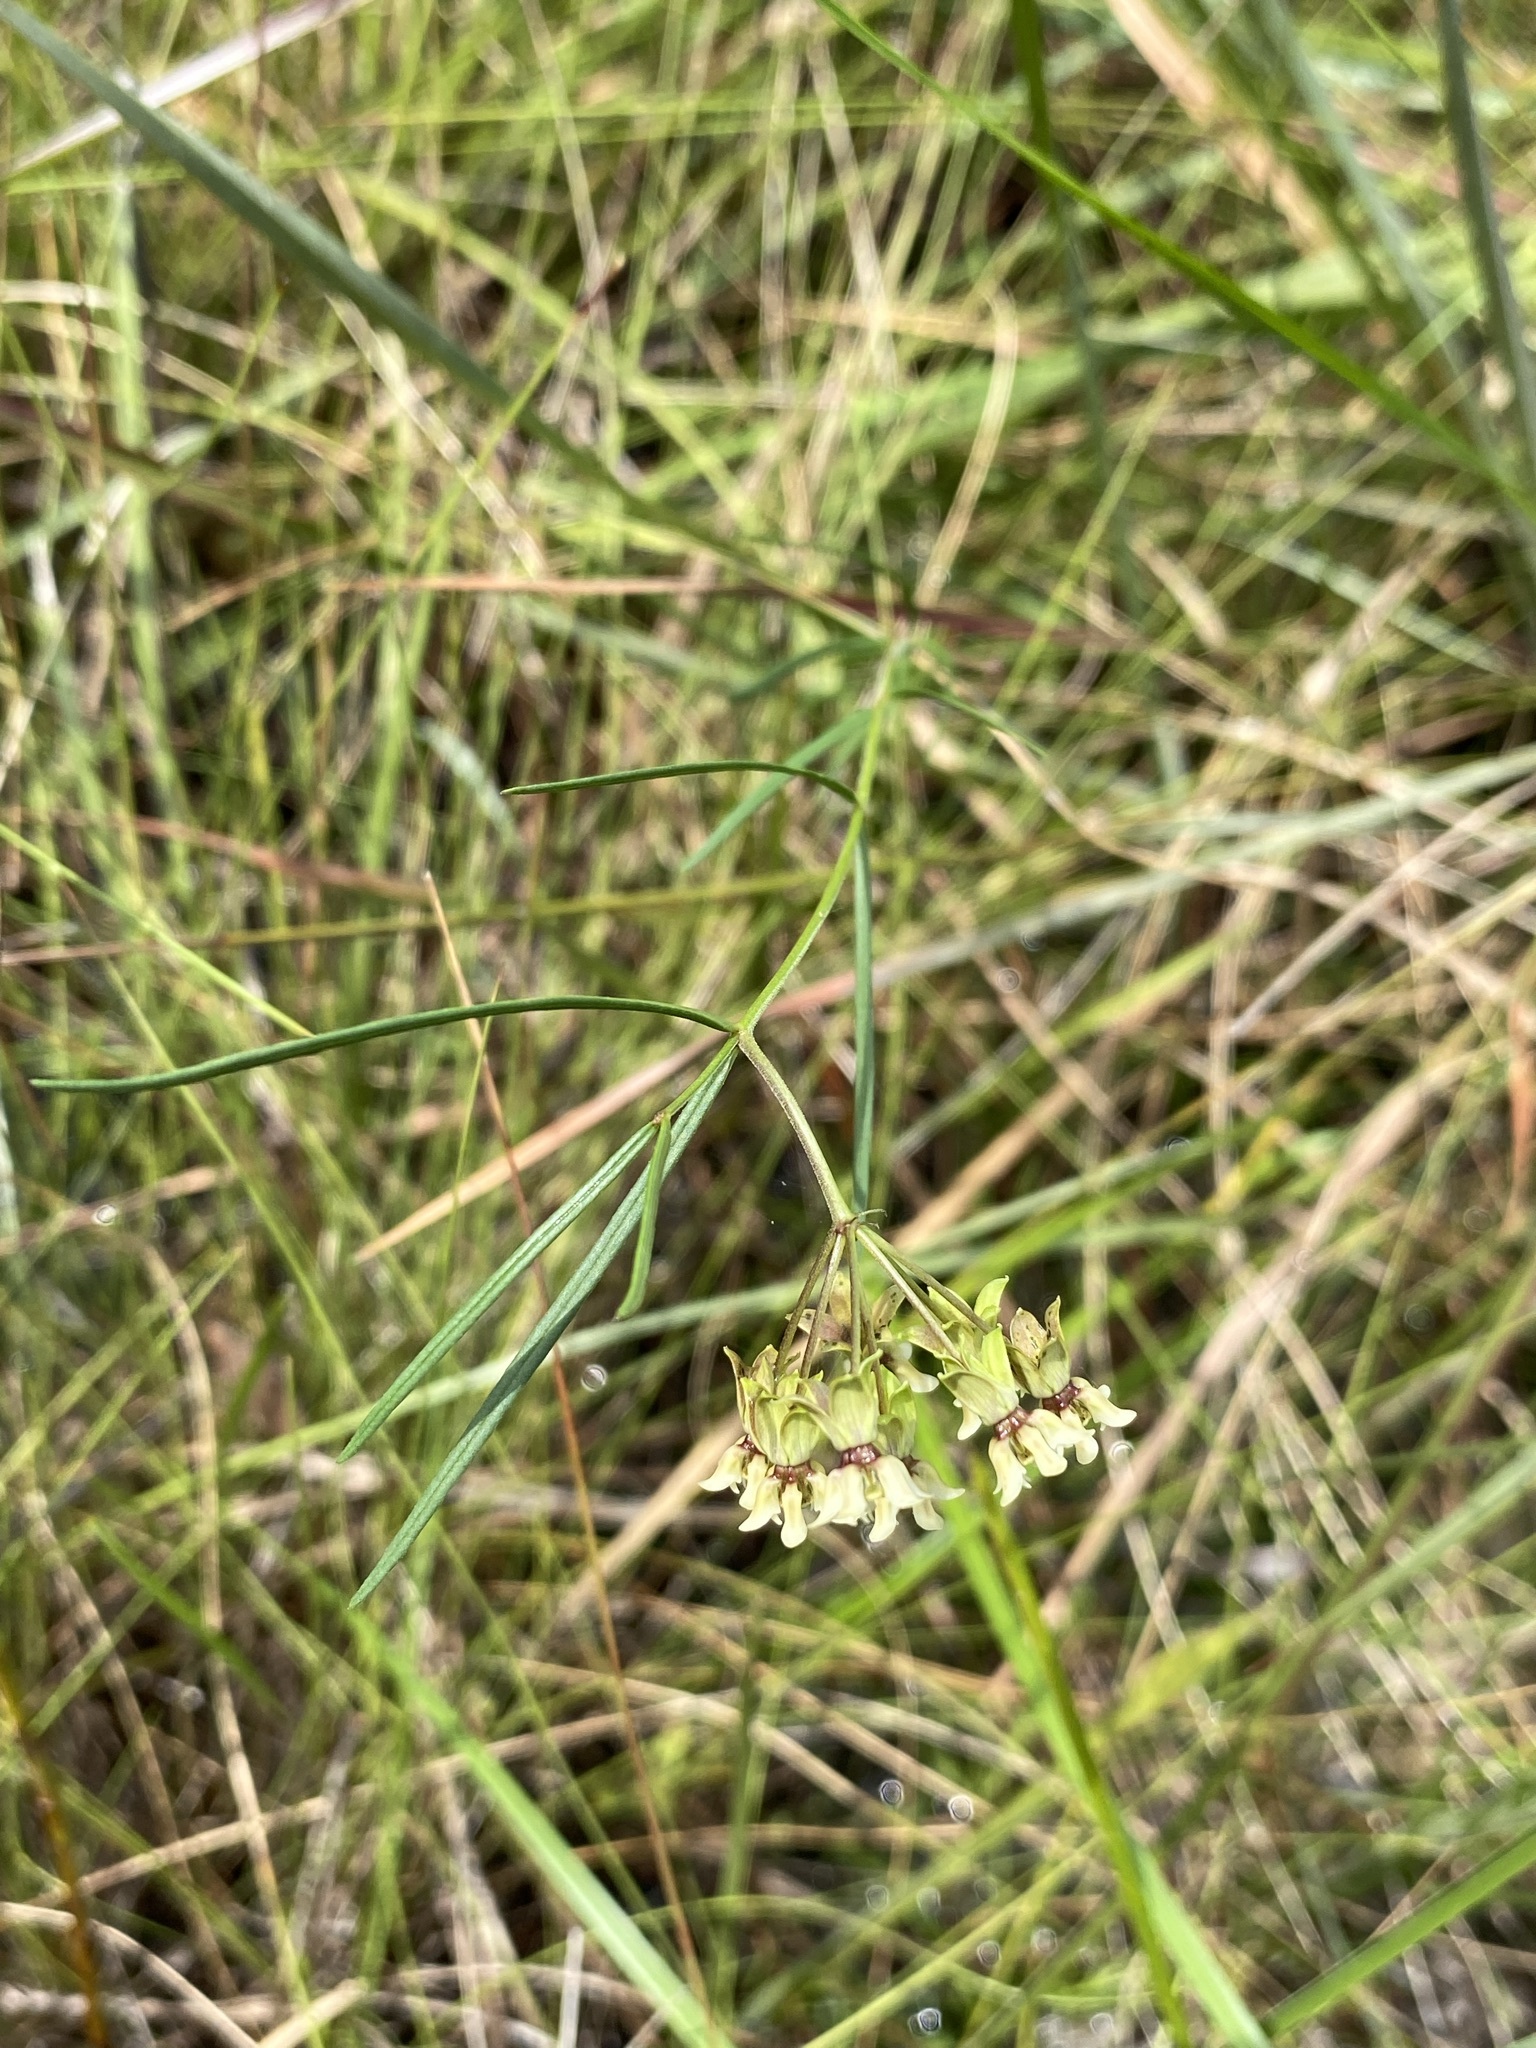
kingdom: Plantae
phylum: Tracheophyta
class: Magnoliopsida
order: Gentianales
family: Apocynaceae
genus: Asclepias
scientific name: Asclepias viridula
